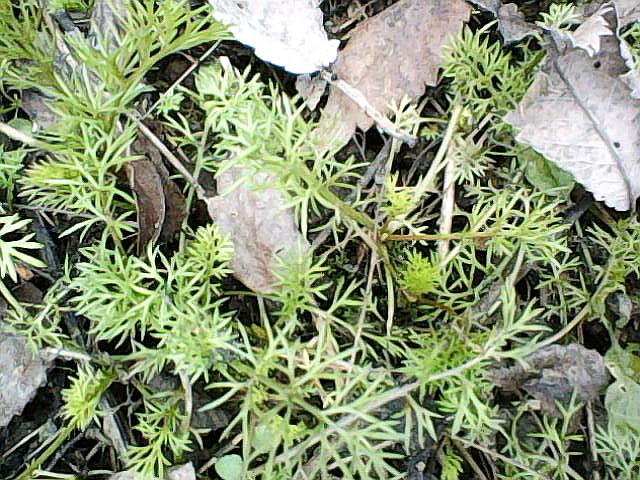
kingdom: Plantae
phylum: Tracheophyta
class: Magnoliopsida
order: Asterales
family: Asteraceae
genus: Tripleurospermum
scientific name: Tripleurospermum inodorum
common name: Scentless mayweed
